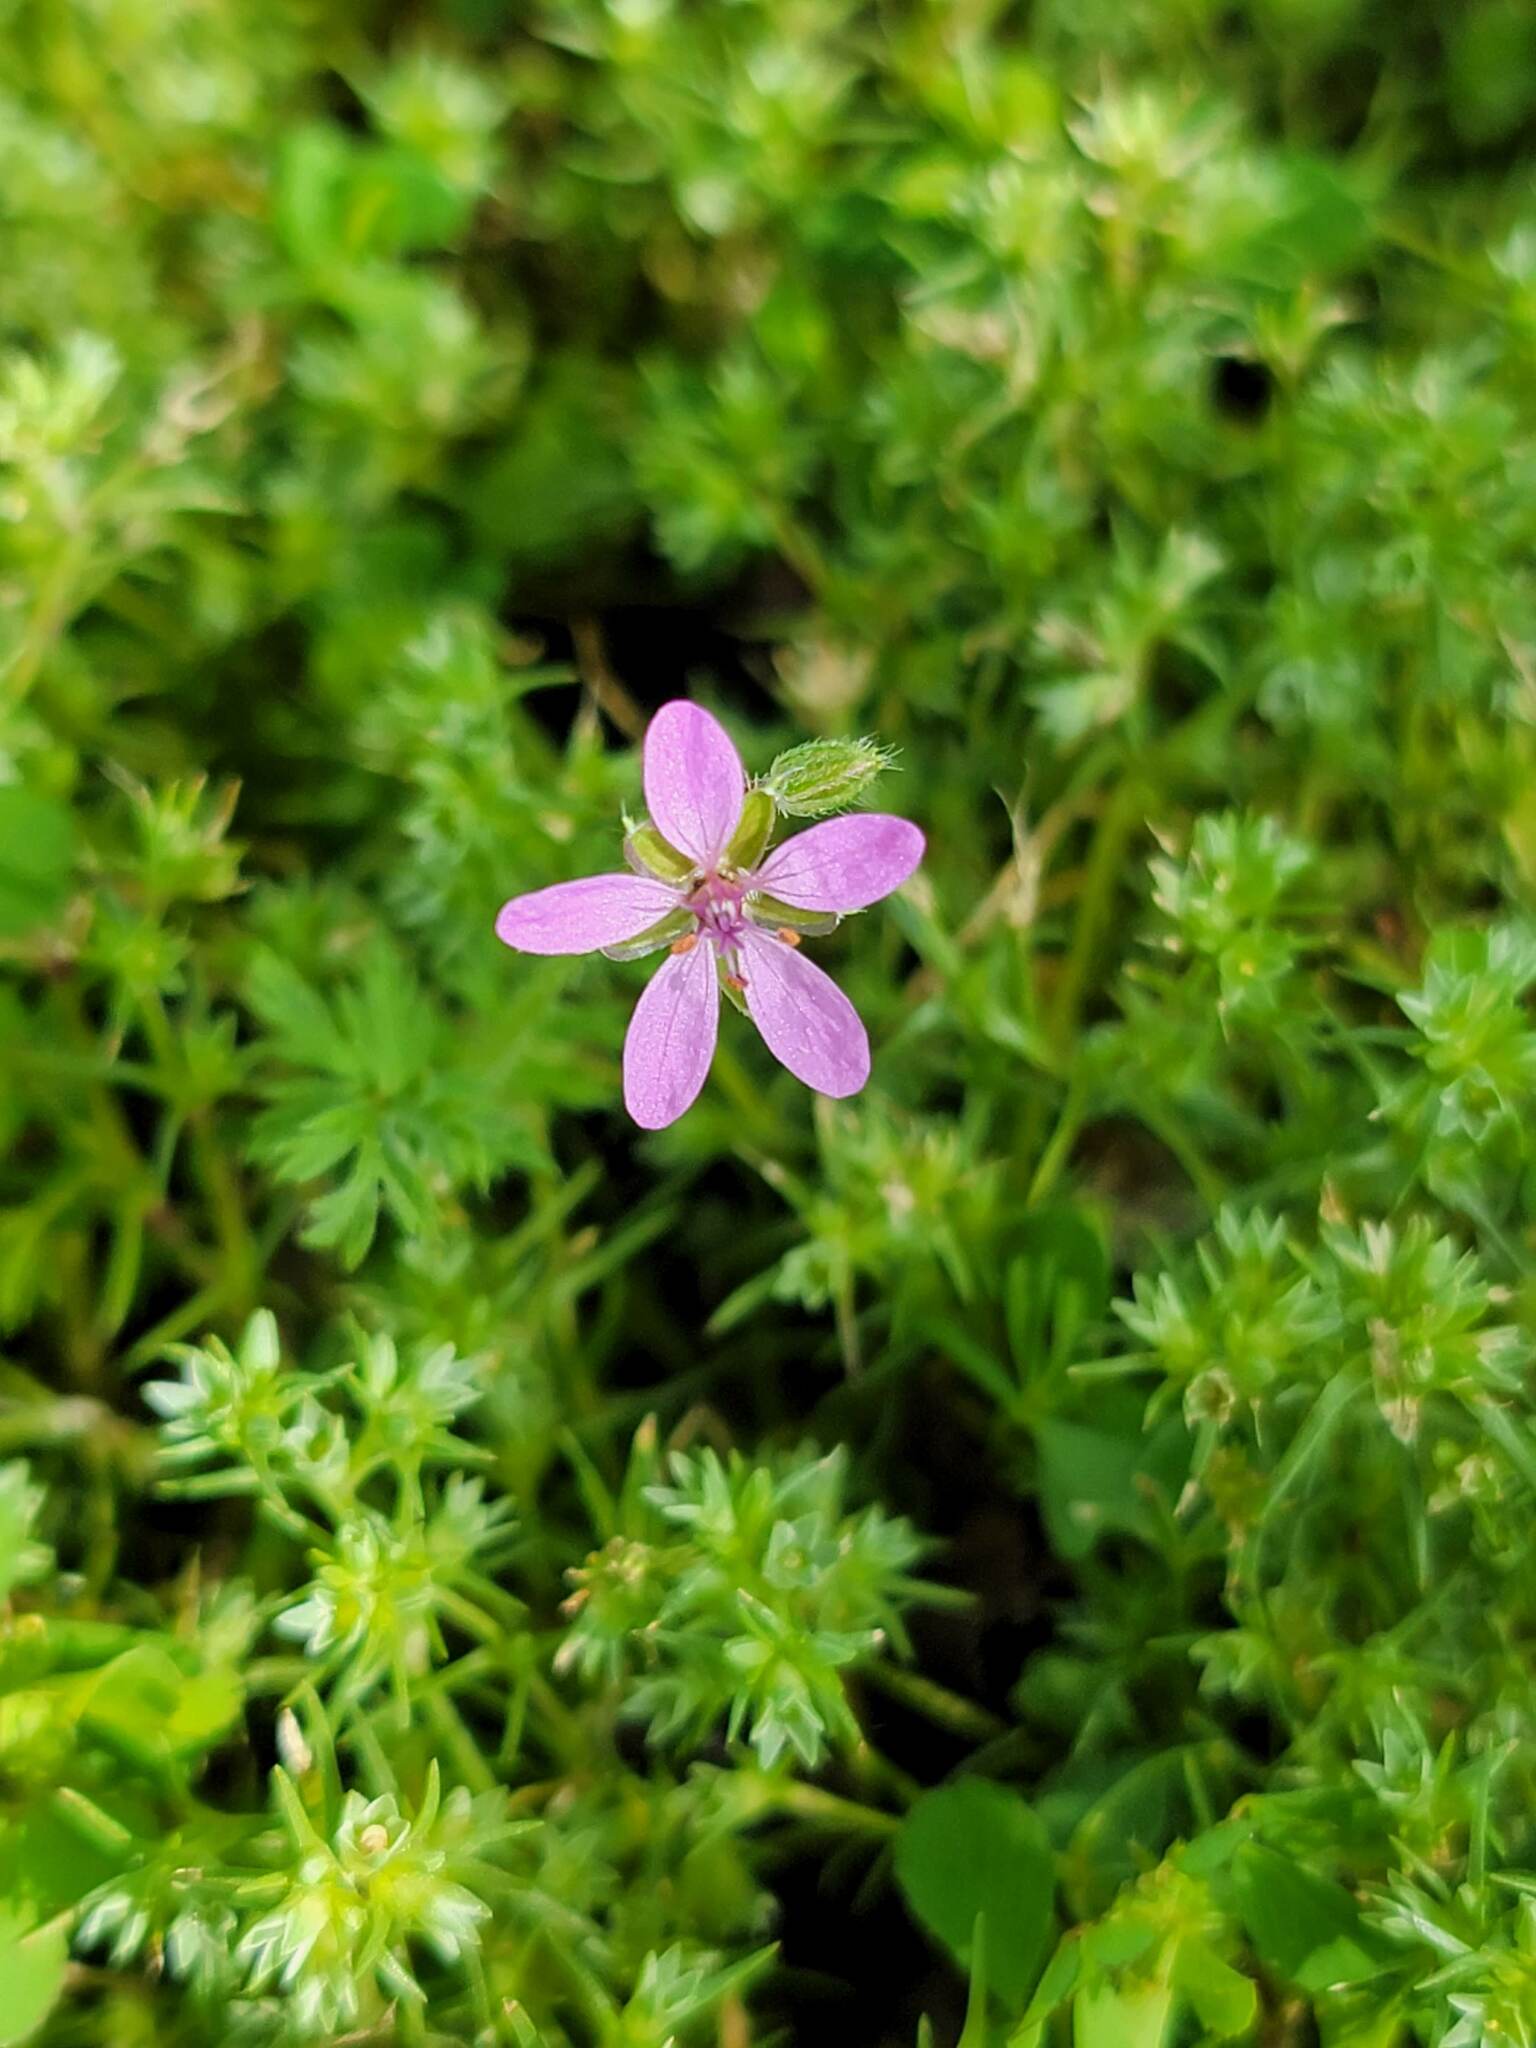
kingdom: Plantae
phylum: Tracheophyta
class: Magnoliopsida
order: Geraniales
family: Geraniaceae
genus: Erodium
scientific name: Erodium cicutarium
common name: Common stork's-bill
